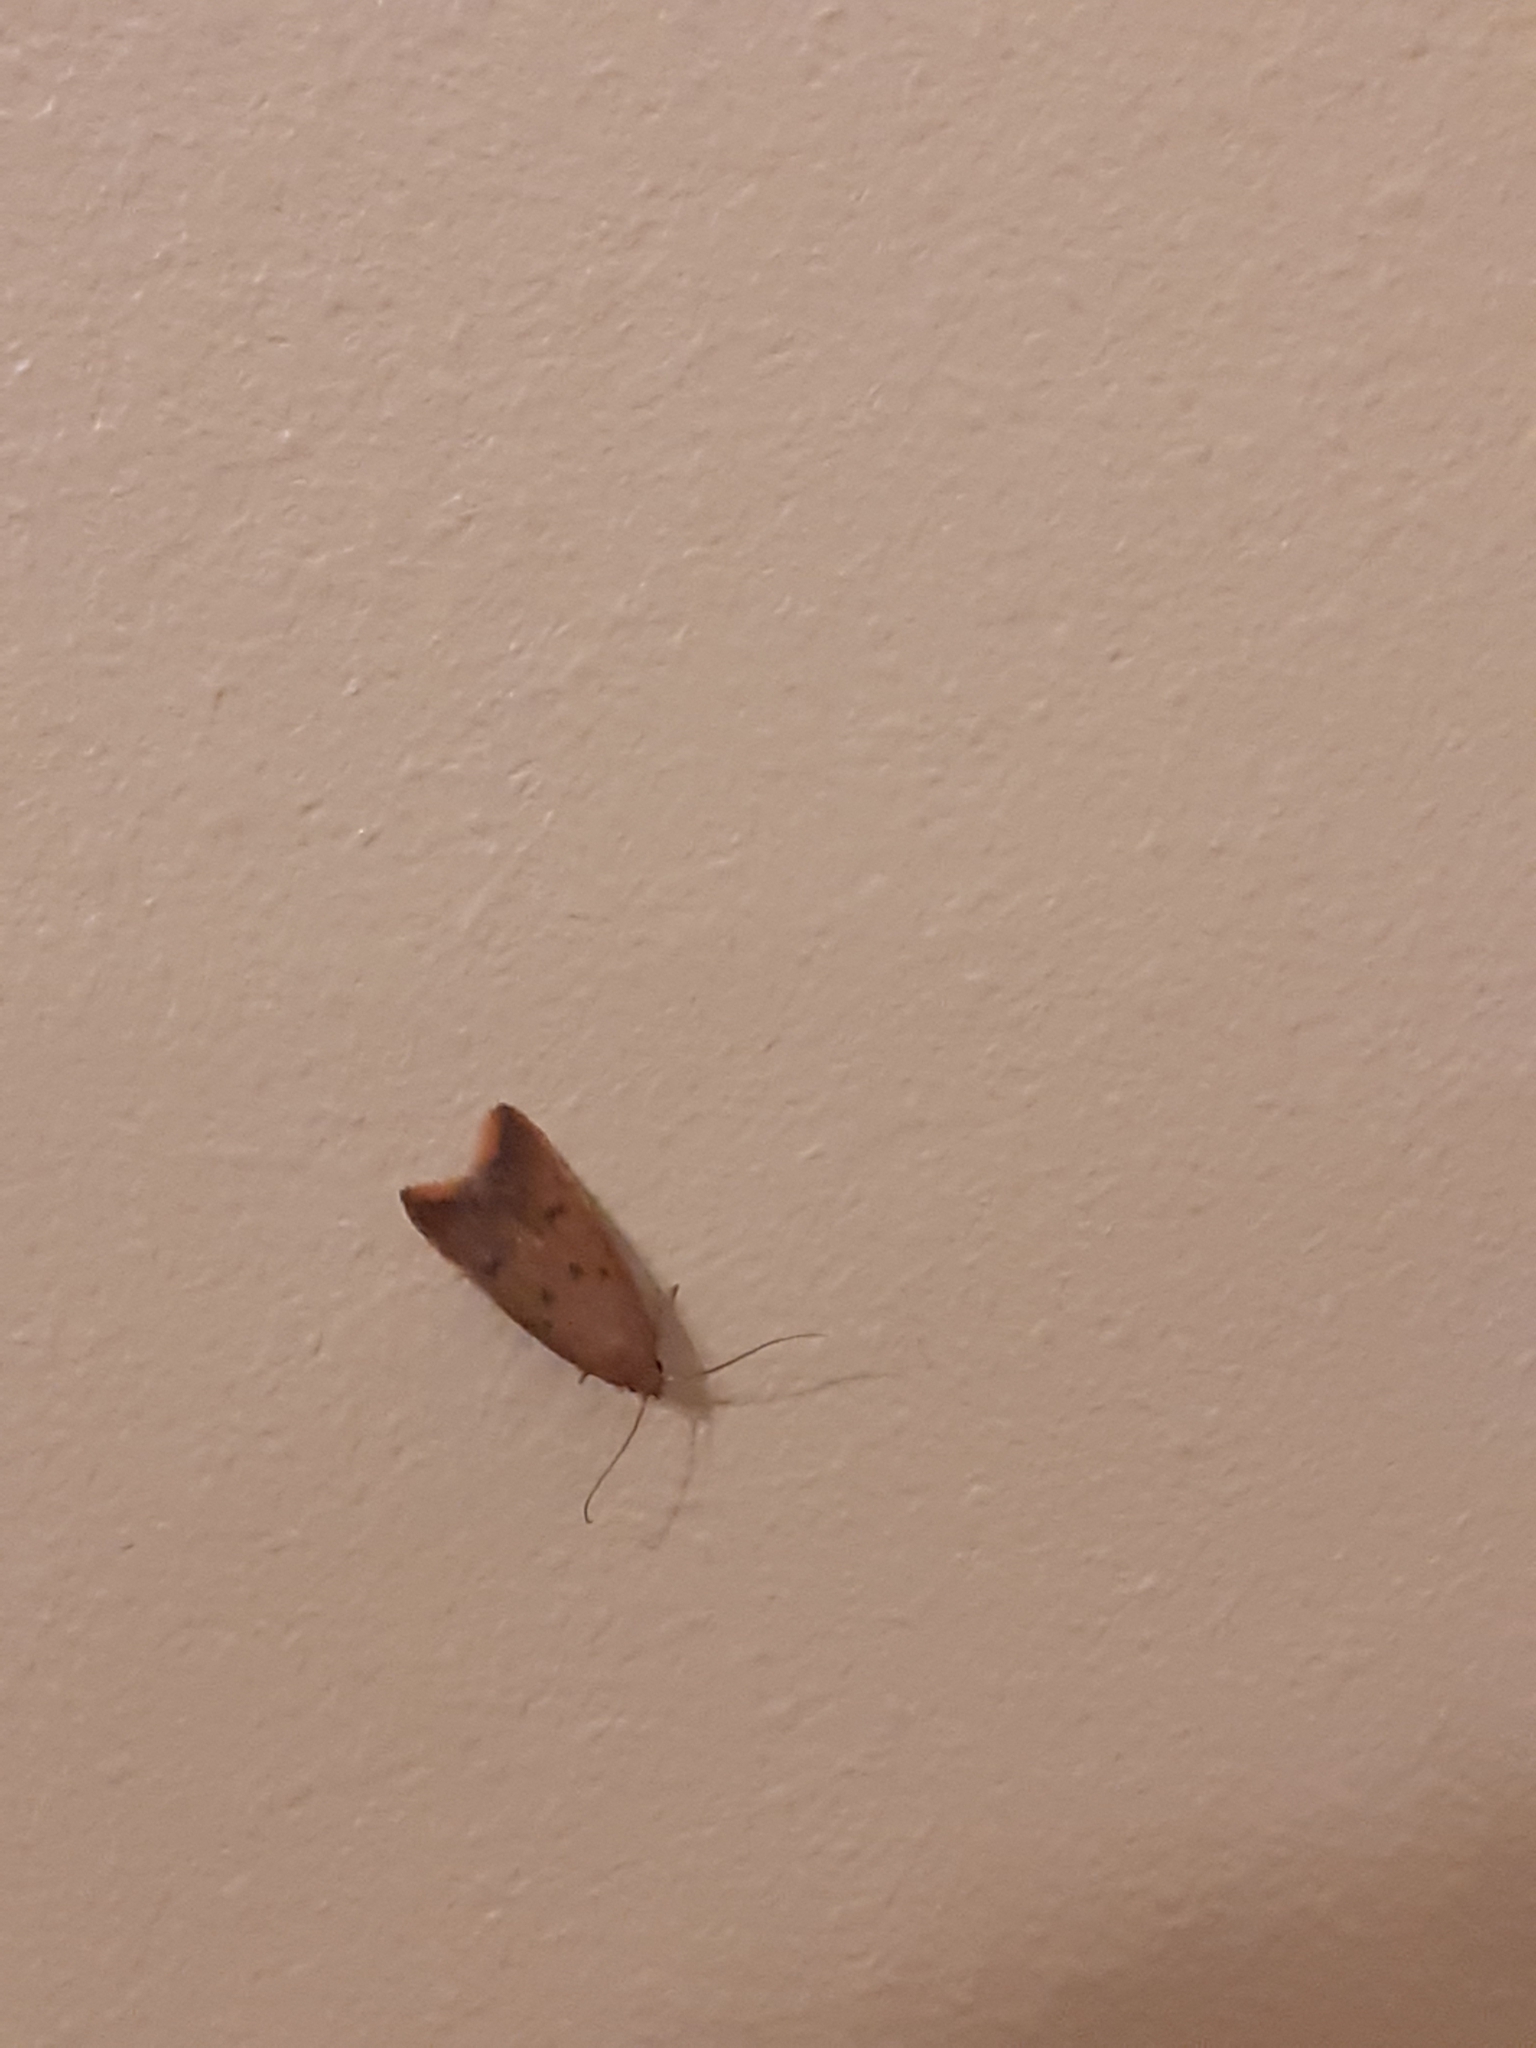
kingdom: Animalia
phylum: Arthropoda
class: Insecta
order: Lepidoptera
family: Oecophoridae
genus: Tachystola
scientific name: Tachystola acroxantha
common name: Ruddy streak
